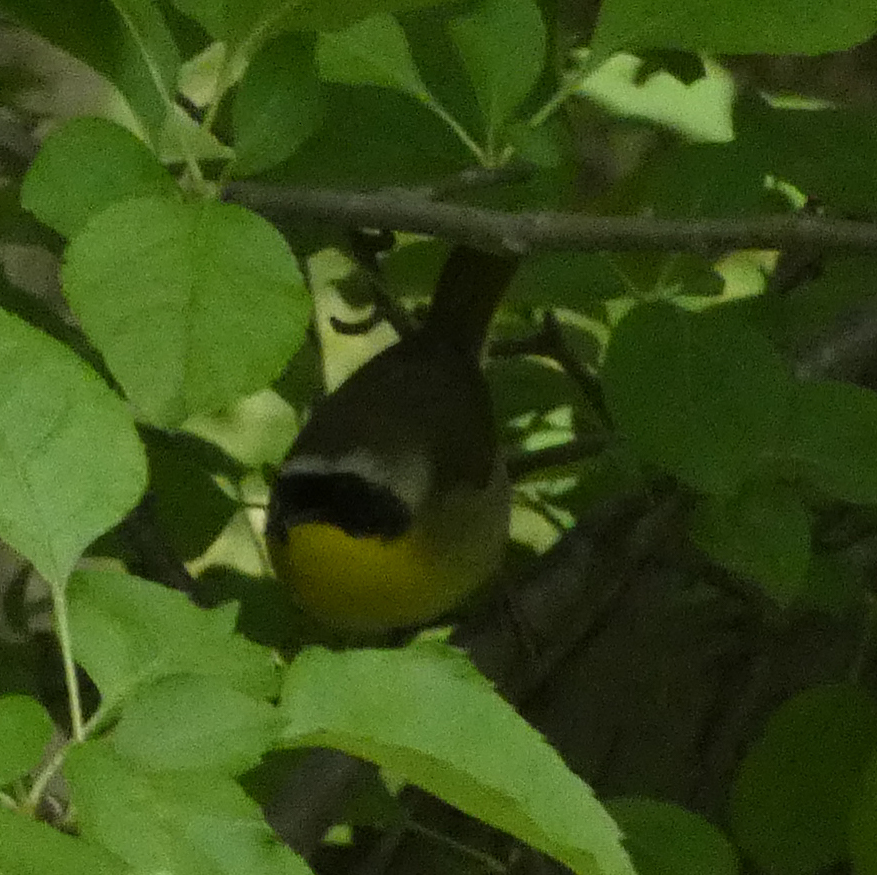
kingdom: Animalia
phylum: Chordata
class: Aves
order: Passeriformes
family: Parulidae
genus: Geothlypis
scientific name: Geothlypis trichas
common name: Common yellowthroat
